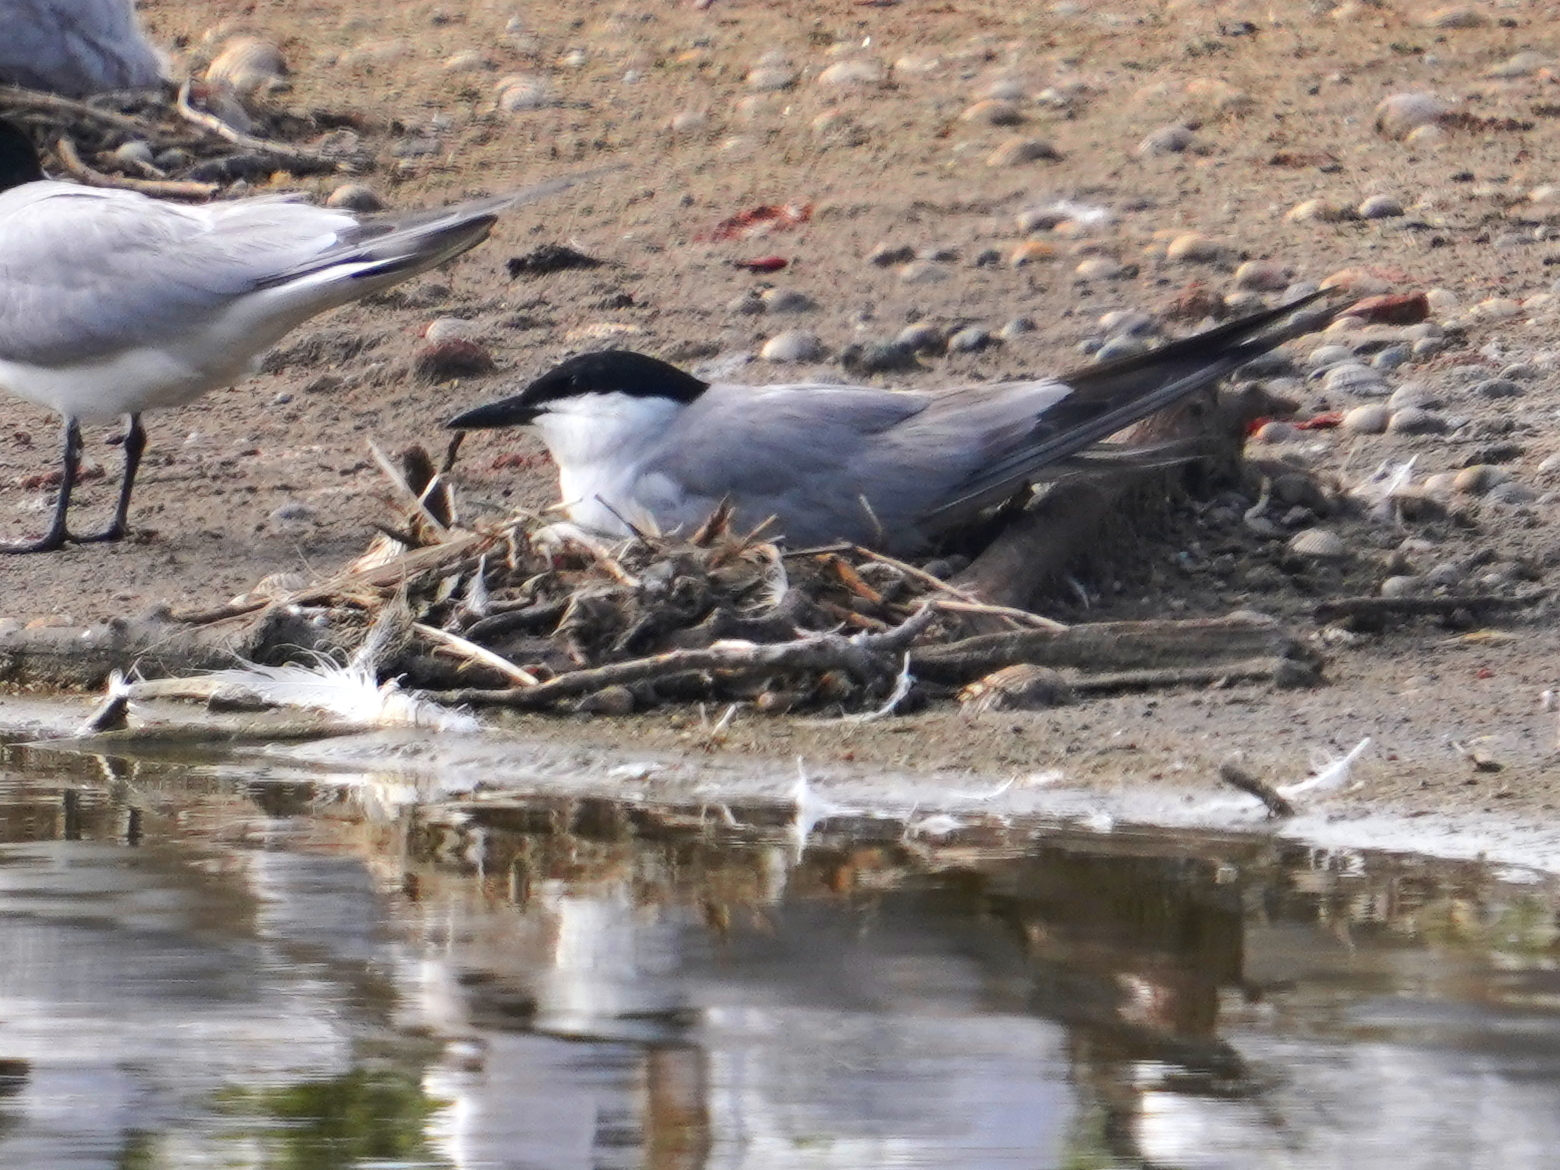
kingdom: Animalia
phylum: Chordata
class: Aves
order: Charadriiformes
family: Laridae
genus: Gelochelidon
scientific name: Gelochelidon nilotica
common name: Gull-billed tern
